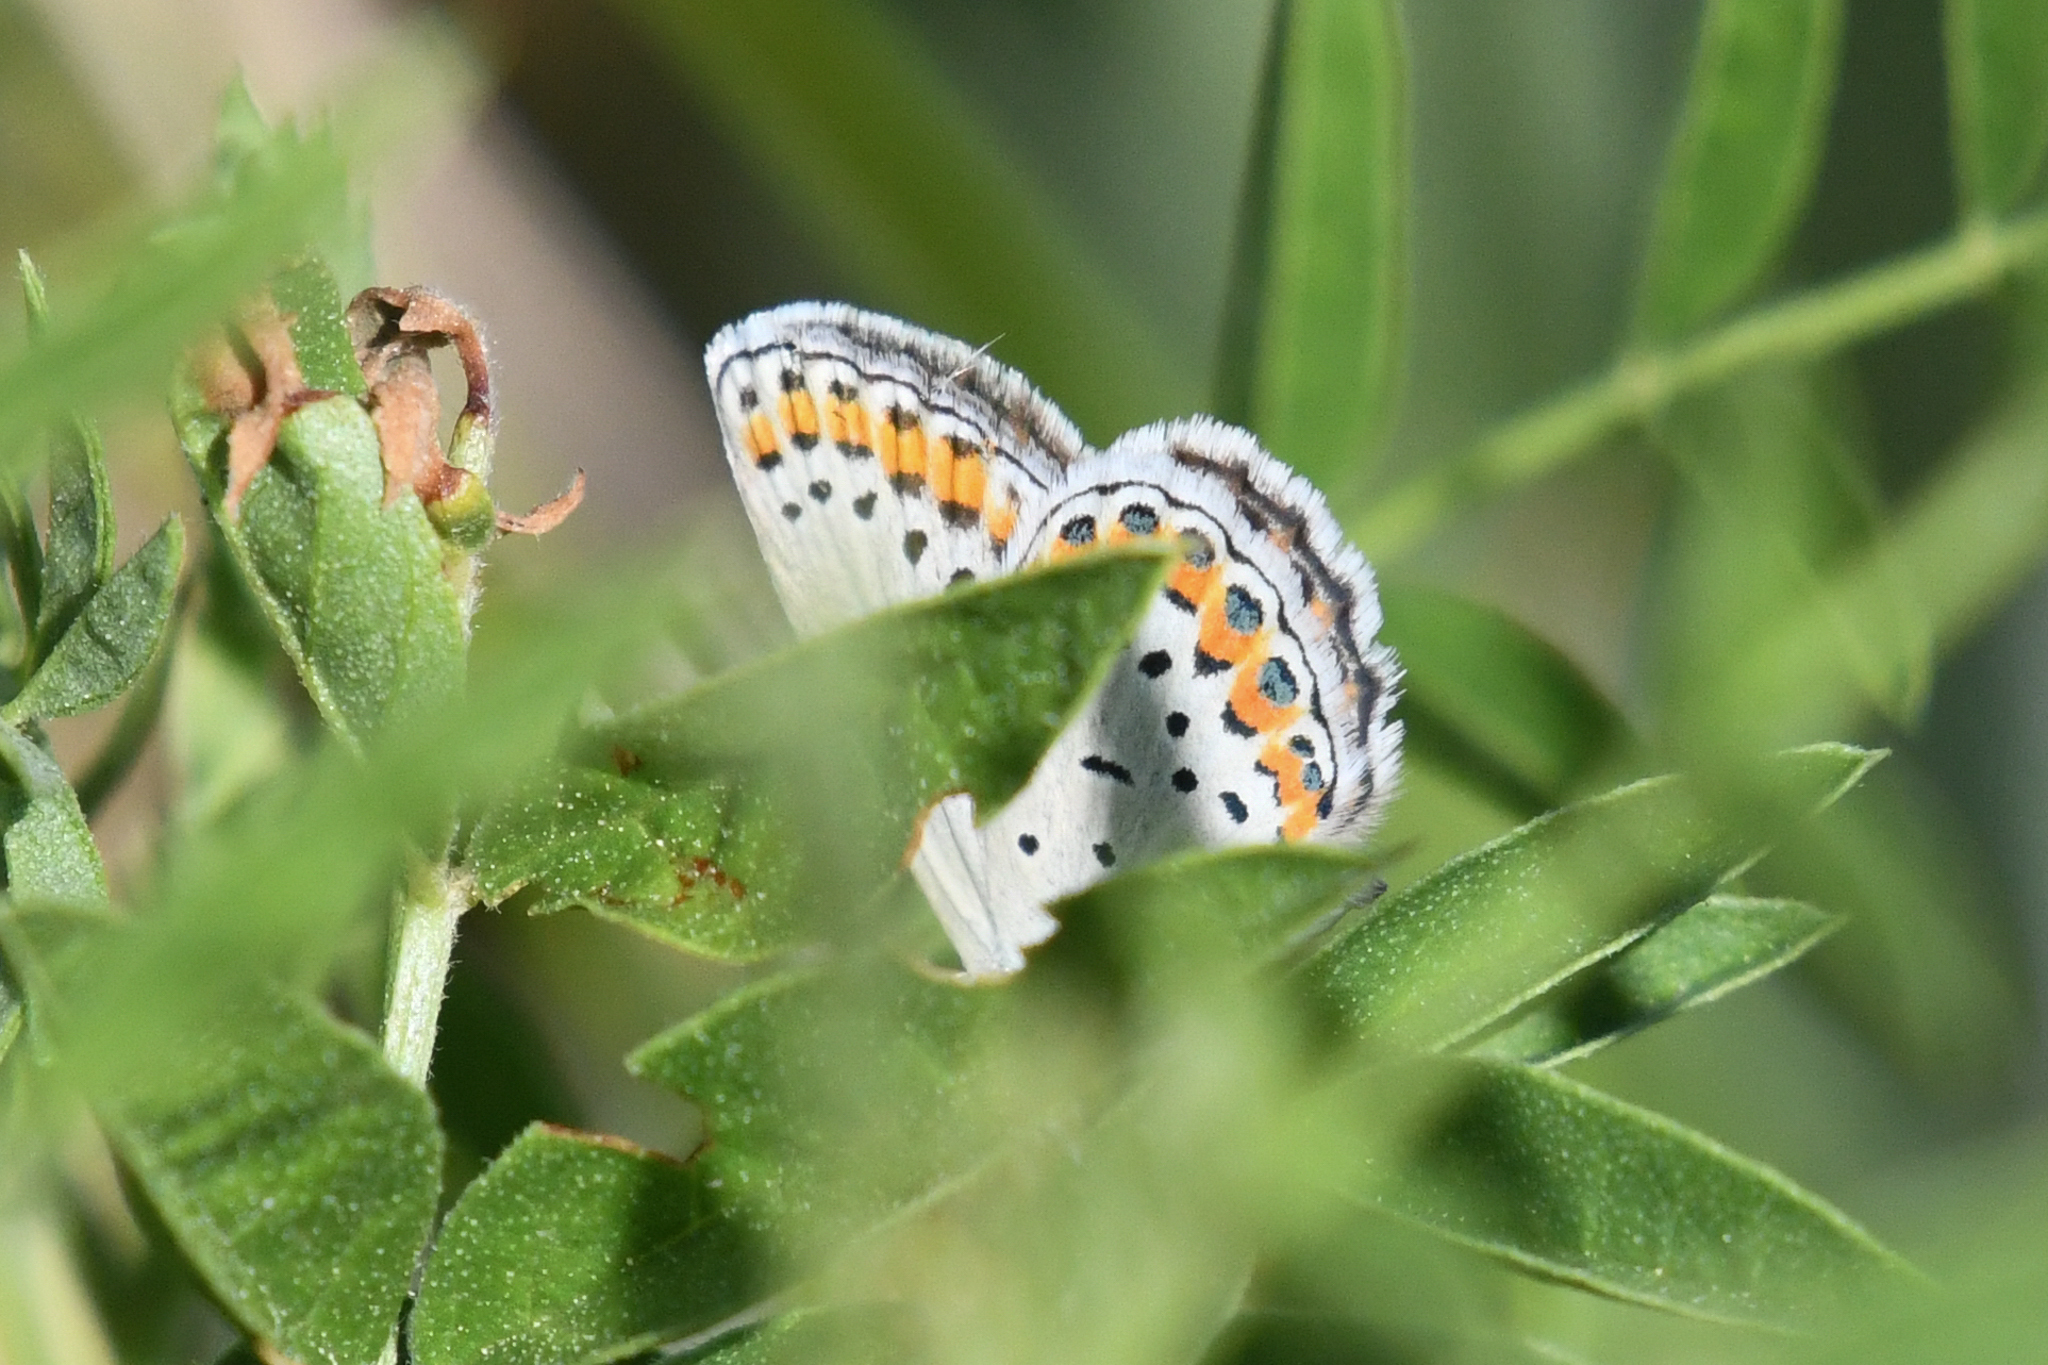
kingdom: Animalia
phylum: Arthropoda
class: Insecta
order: Lepidoptera
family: Lycaenidae
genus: Lycaeides
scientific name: Lycaeides melissa
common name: Melissa blue
